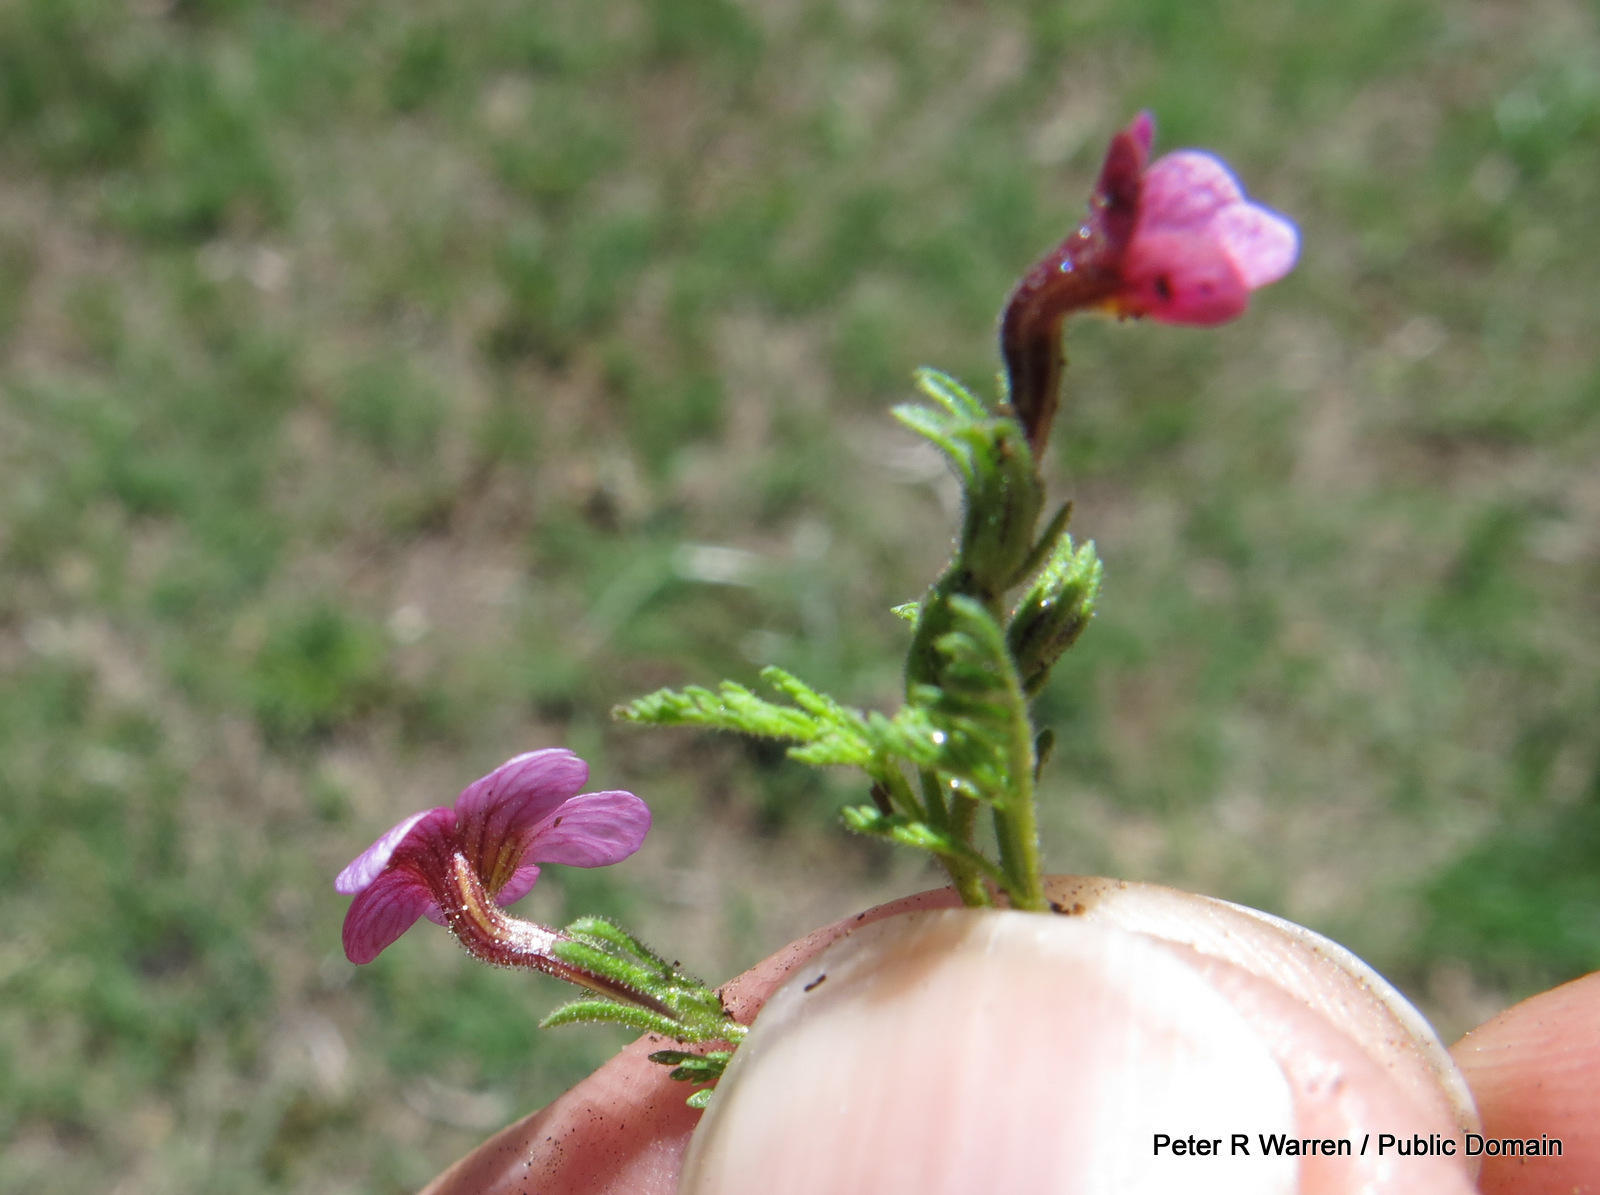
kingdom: Plantae
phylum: Tracheophyta
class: Magnoliopsida
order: Lamiales
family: Scrophulariaceae
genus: Jamesbrittenia
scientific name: Jamesbrittenia aurantiaca
